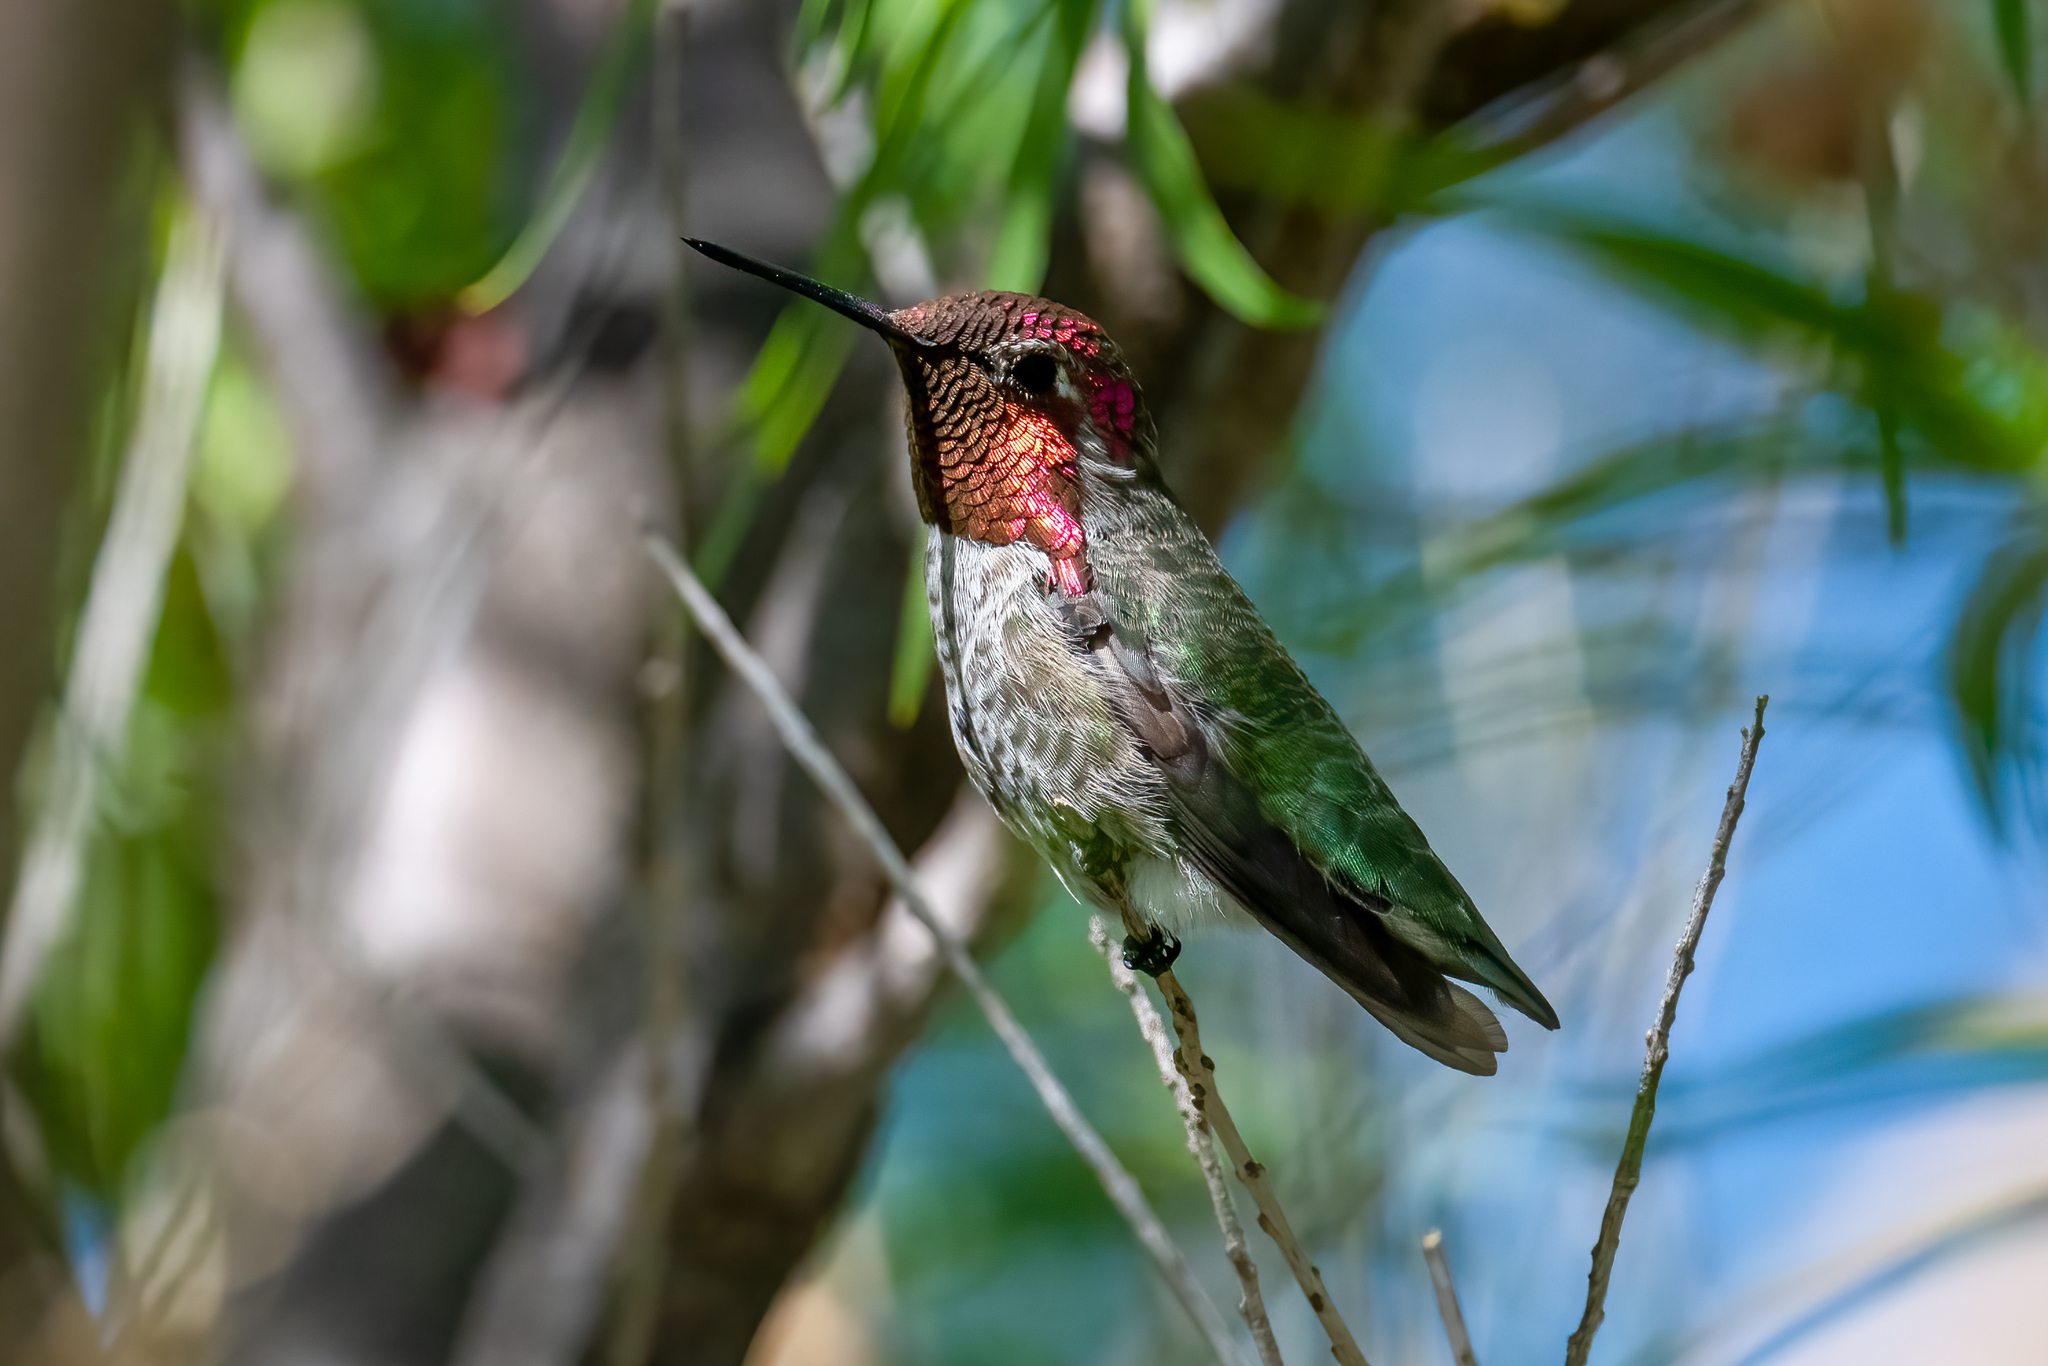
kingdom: Animalia
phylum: Chordata
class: Aves
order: Apodiformes
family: Trochilidae
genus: Calypte
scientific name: Calypte anna
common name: Anna's hummingbird
